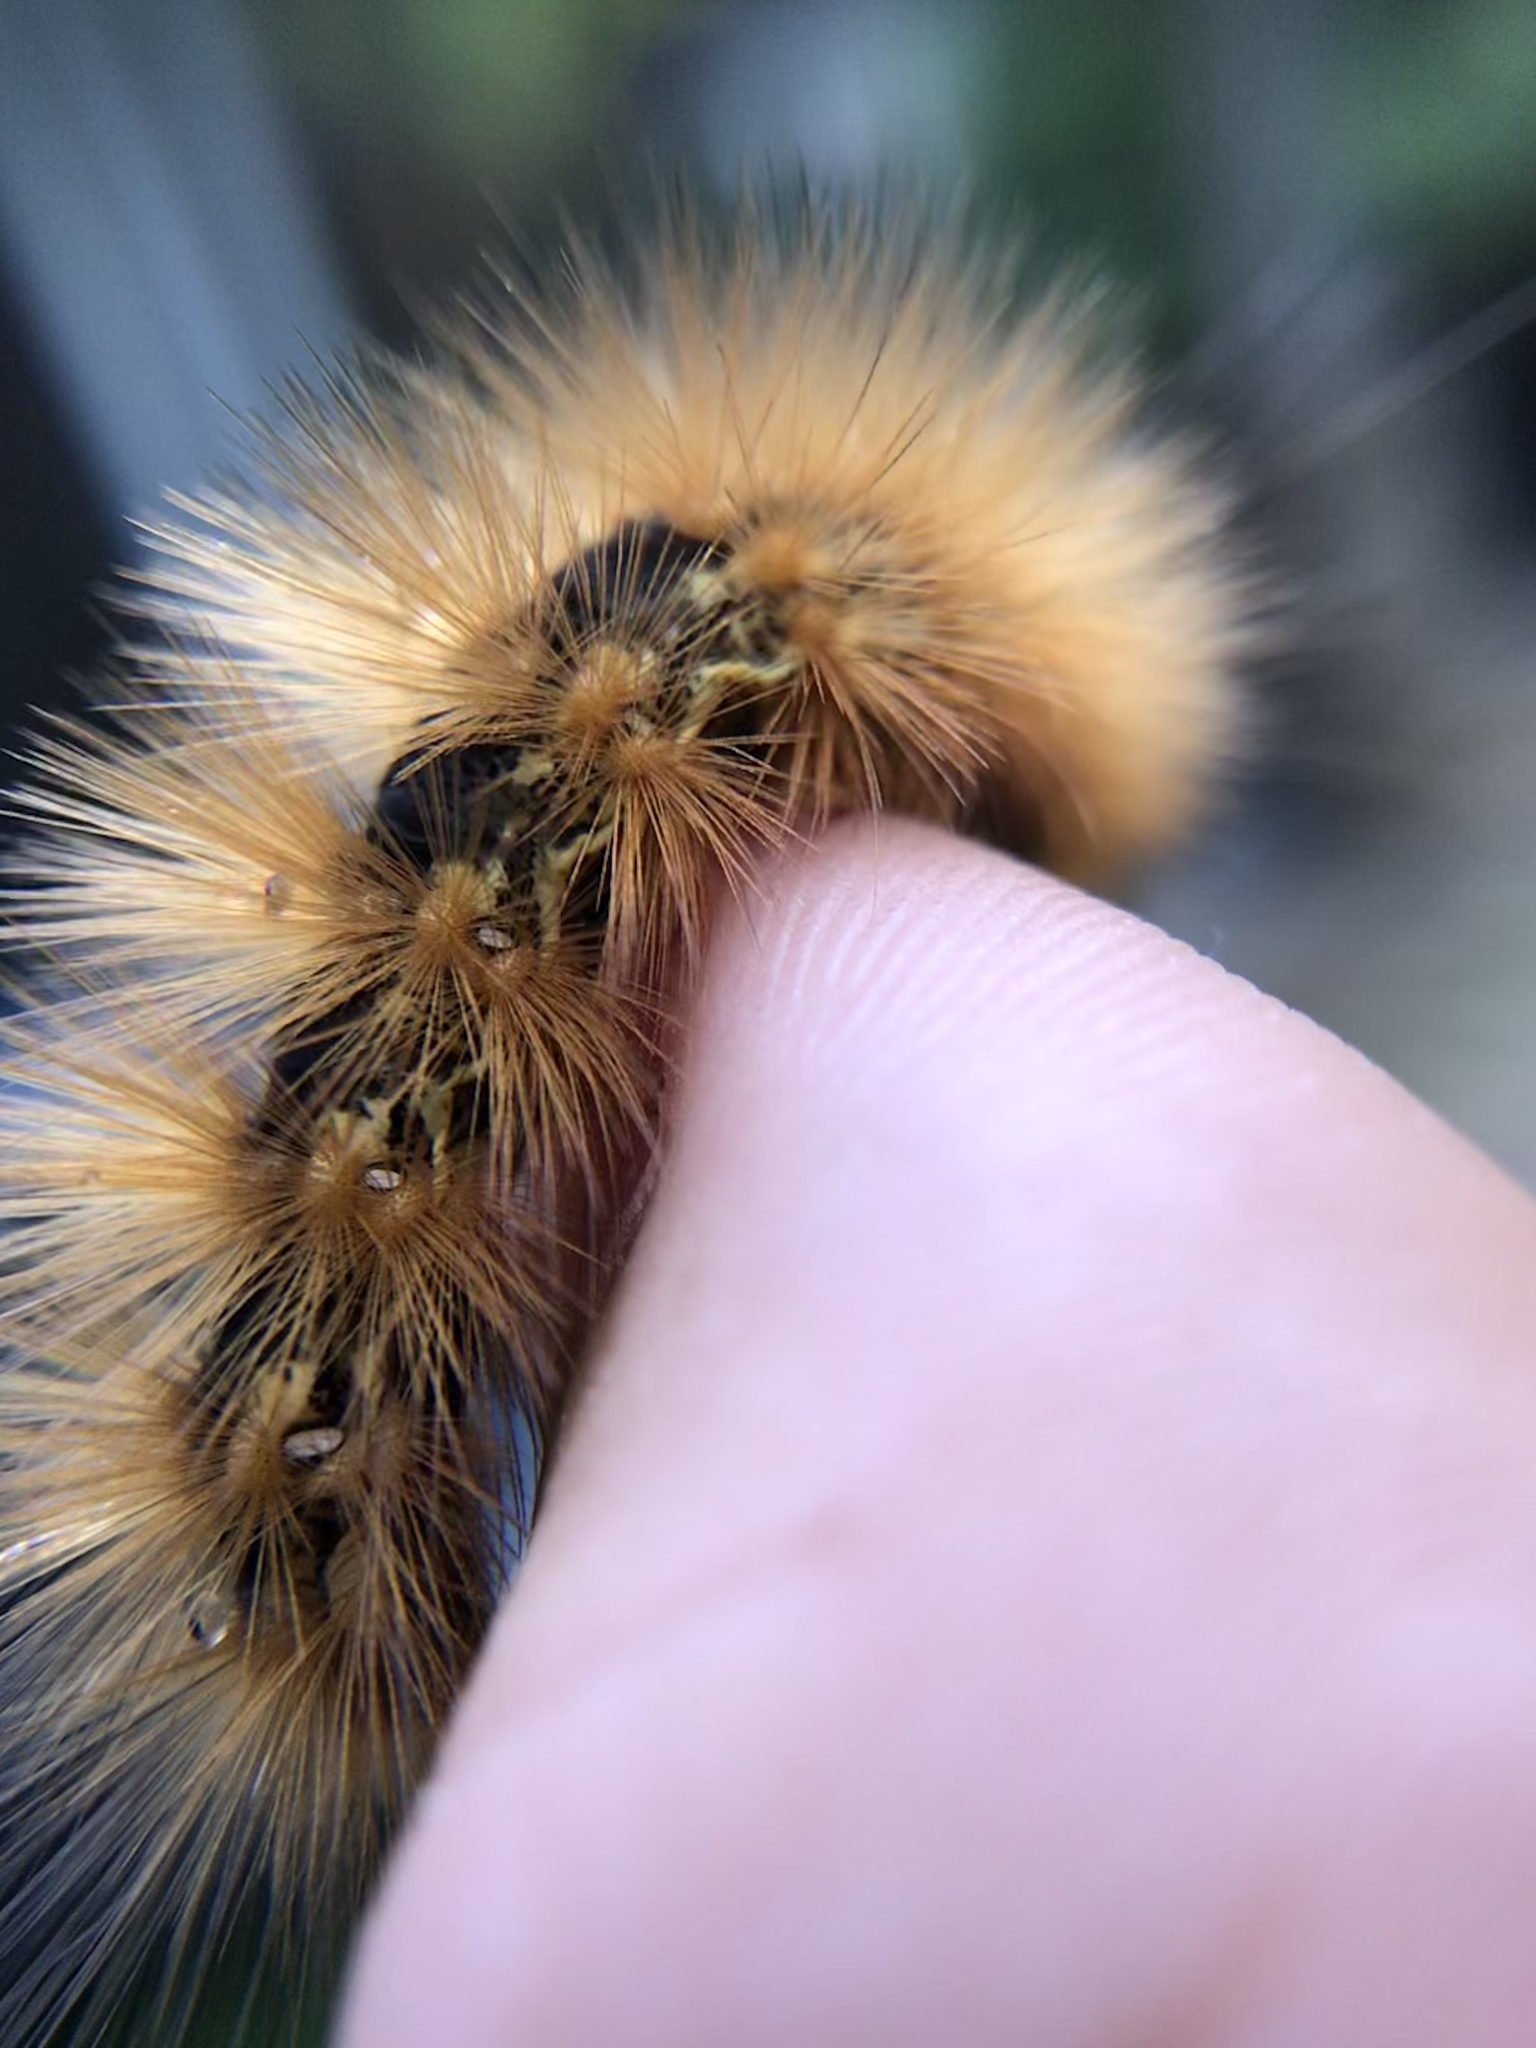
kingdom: Animalia
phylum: Arthropoda
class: Insecta
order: Lepidoptera
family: Erebidae
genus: Estigmene
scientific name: Estigmene acrea
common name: Salt marsh moth
